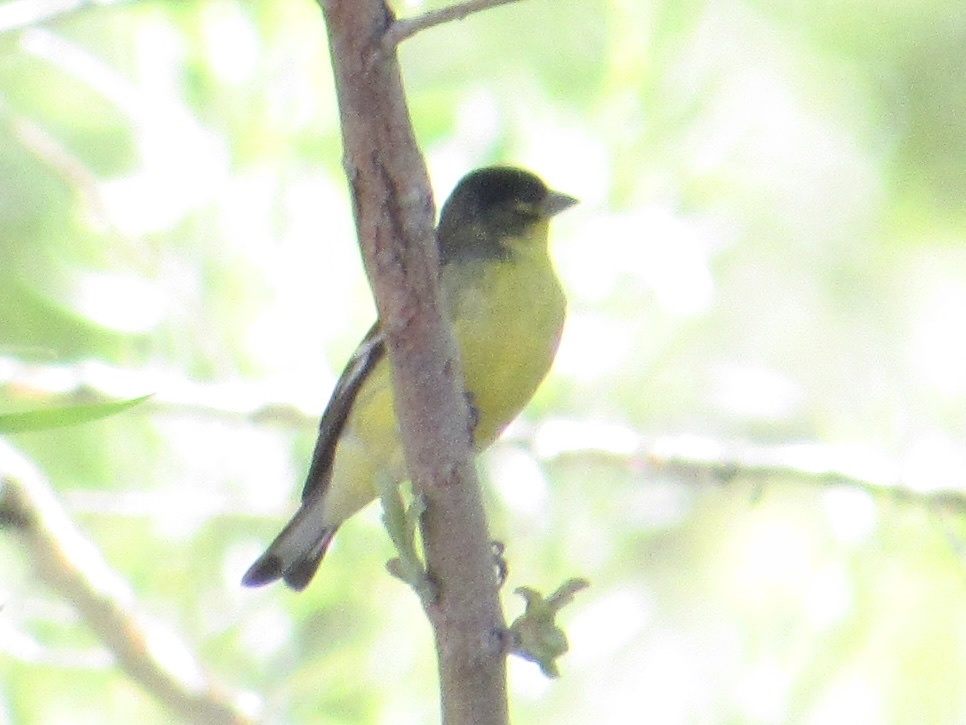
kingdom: Animalia
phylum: Chordata
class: Aves
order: Passeriformes
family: Fringillidae
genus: Spinus
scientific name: Spinus psaltria
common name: Lesser goldfinch
